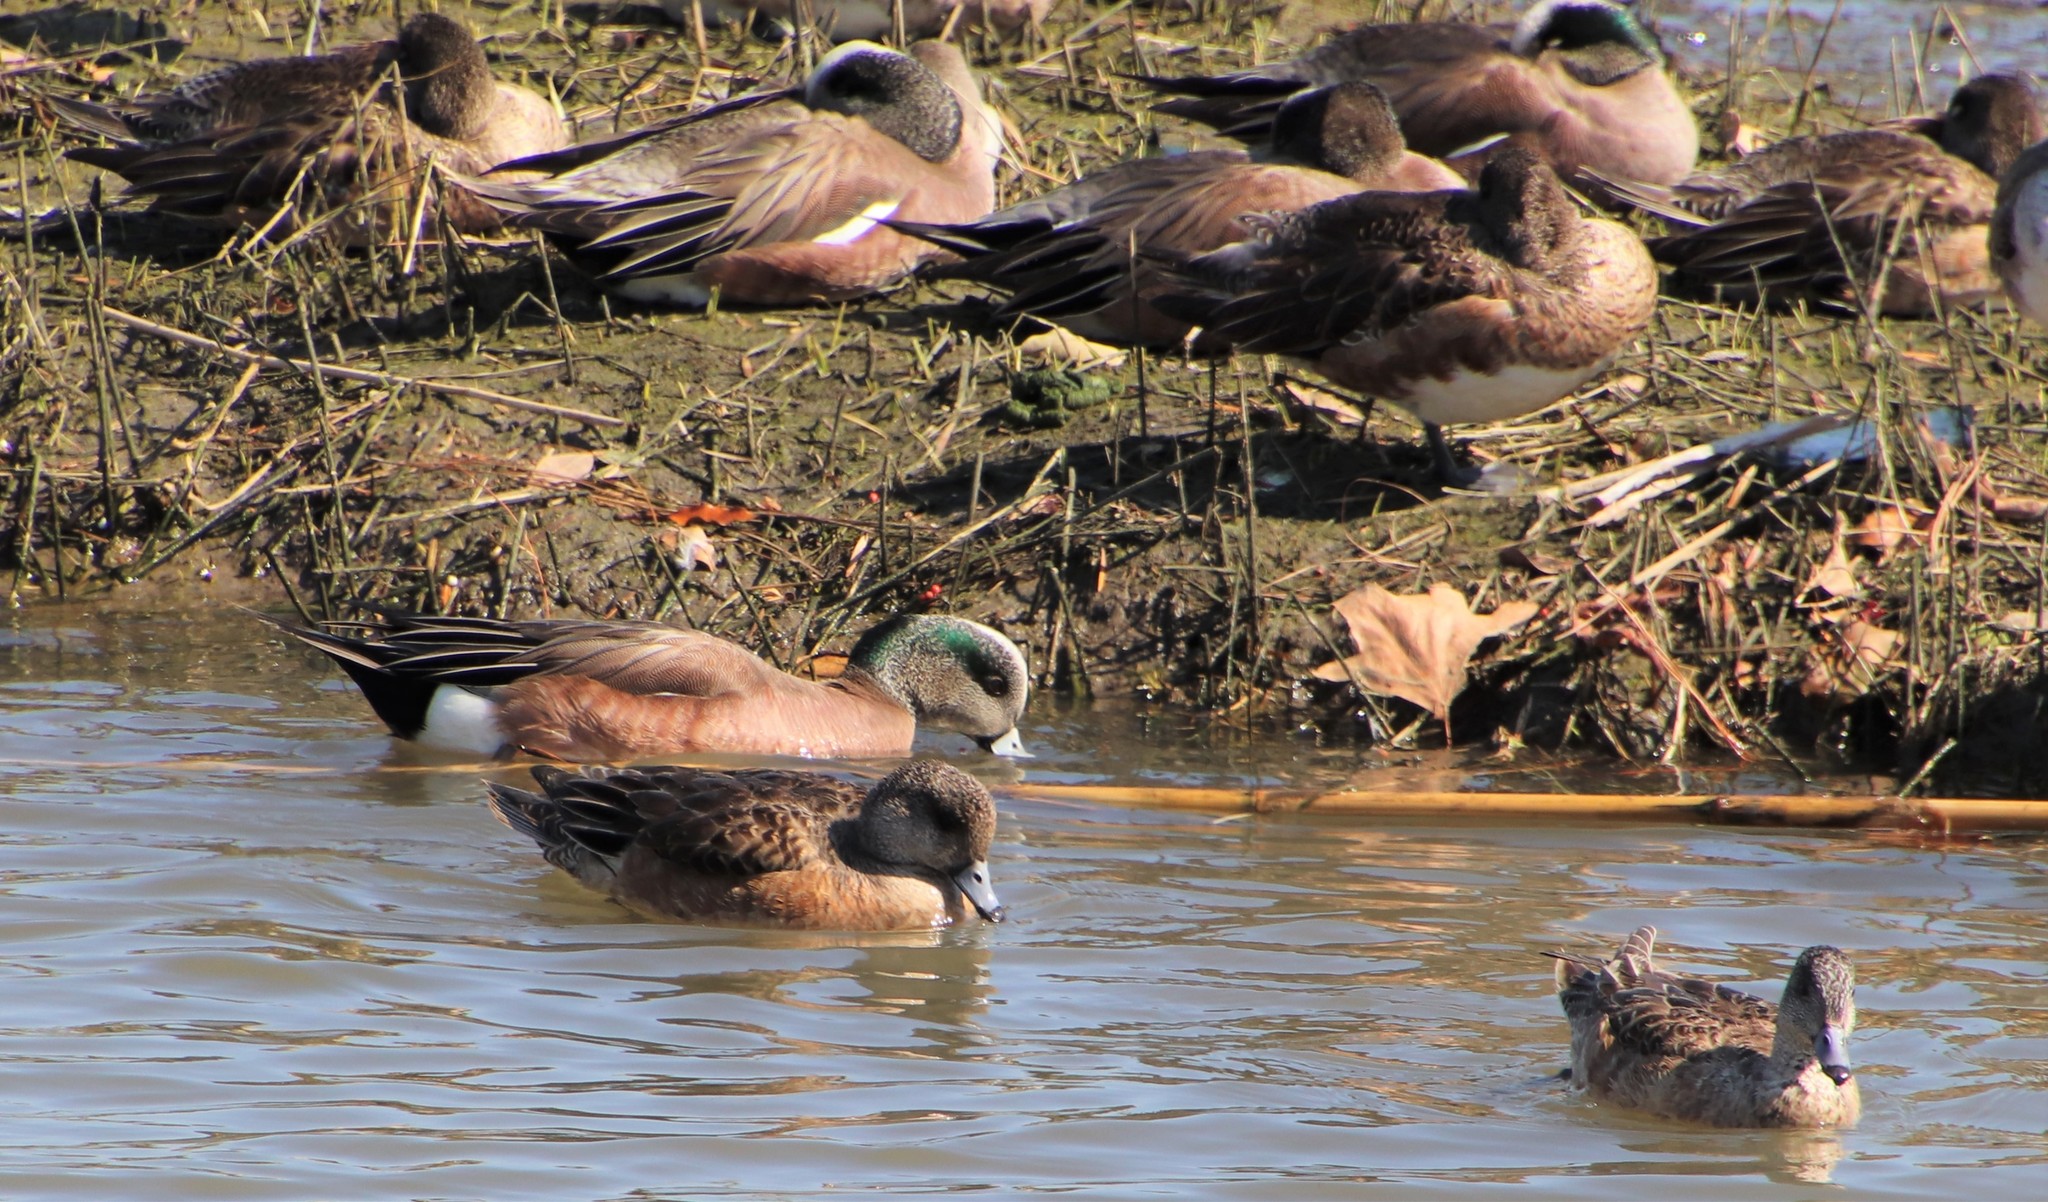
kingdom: Animalia
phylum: Chordata
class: Aves
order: Anseriformes
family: Anatidae
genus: Mareca
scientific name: Mareca americana
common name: American wigeon
